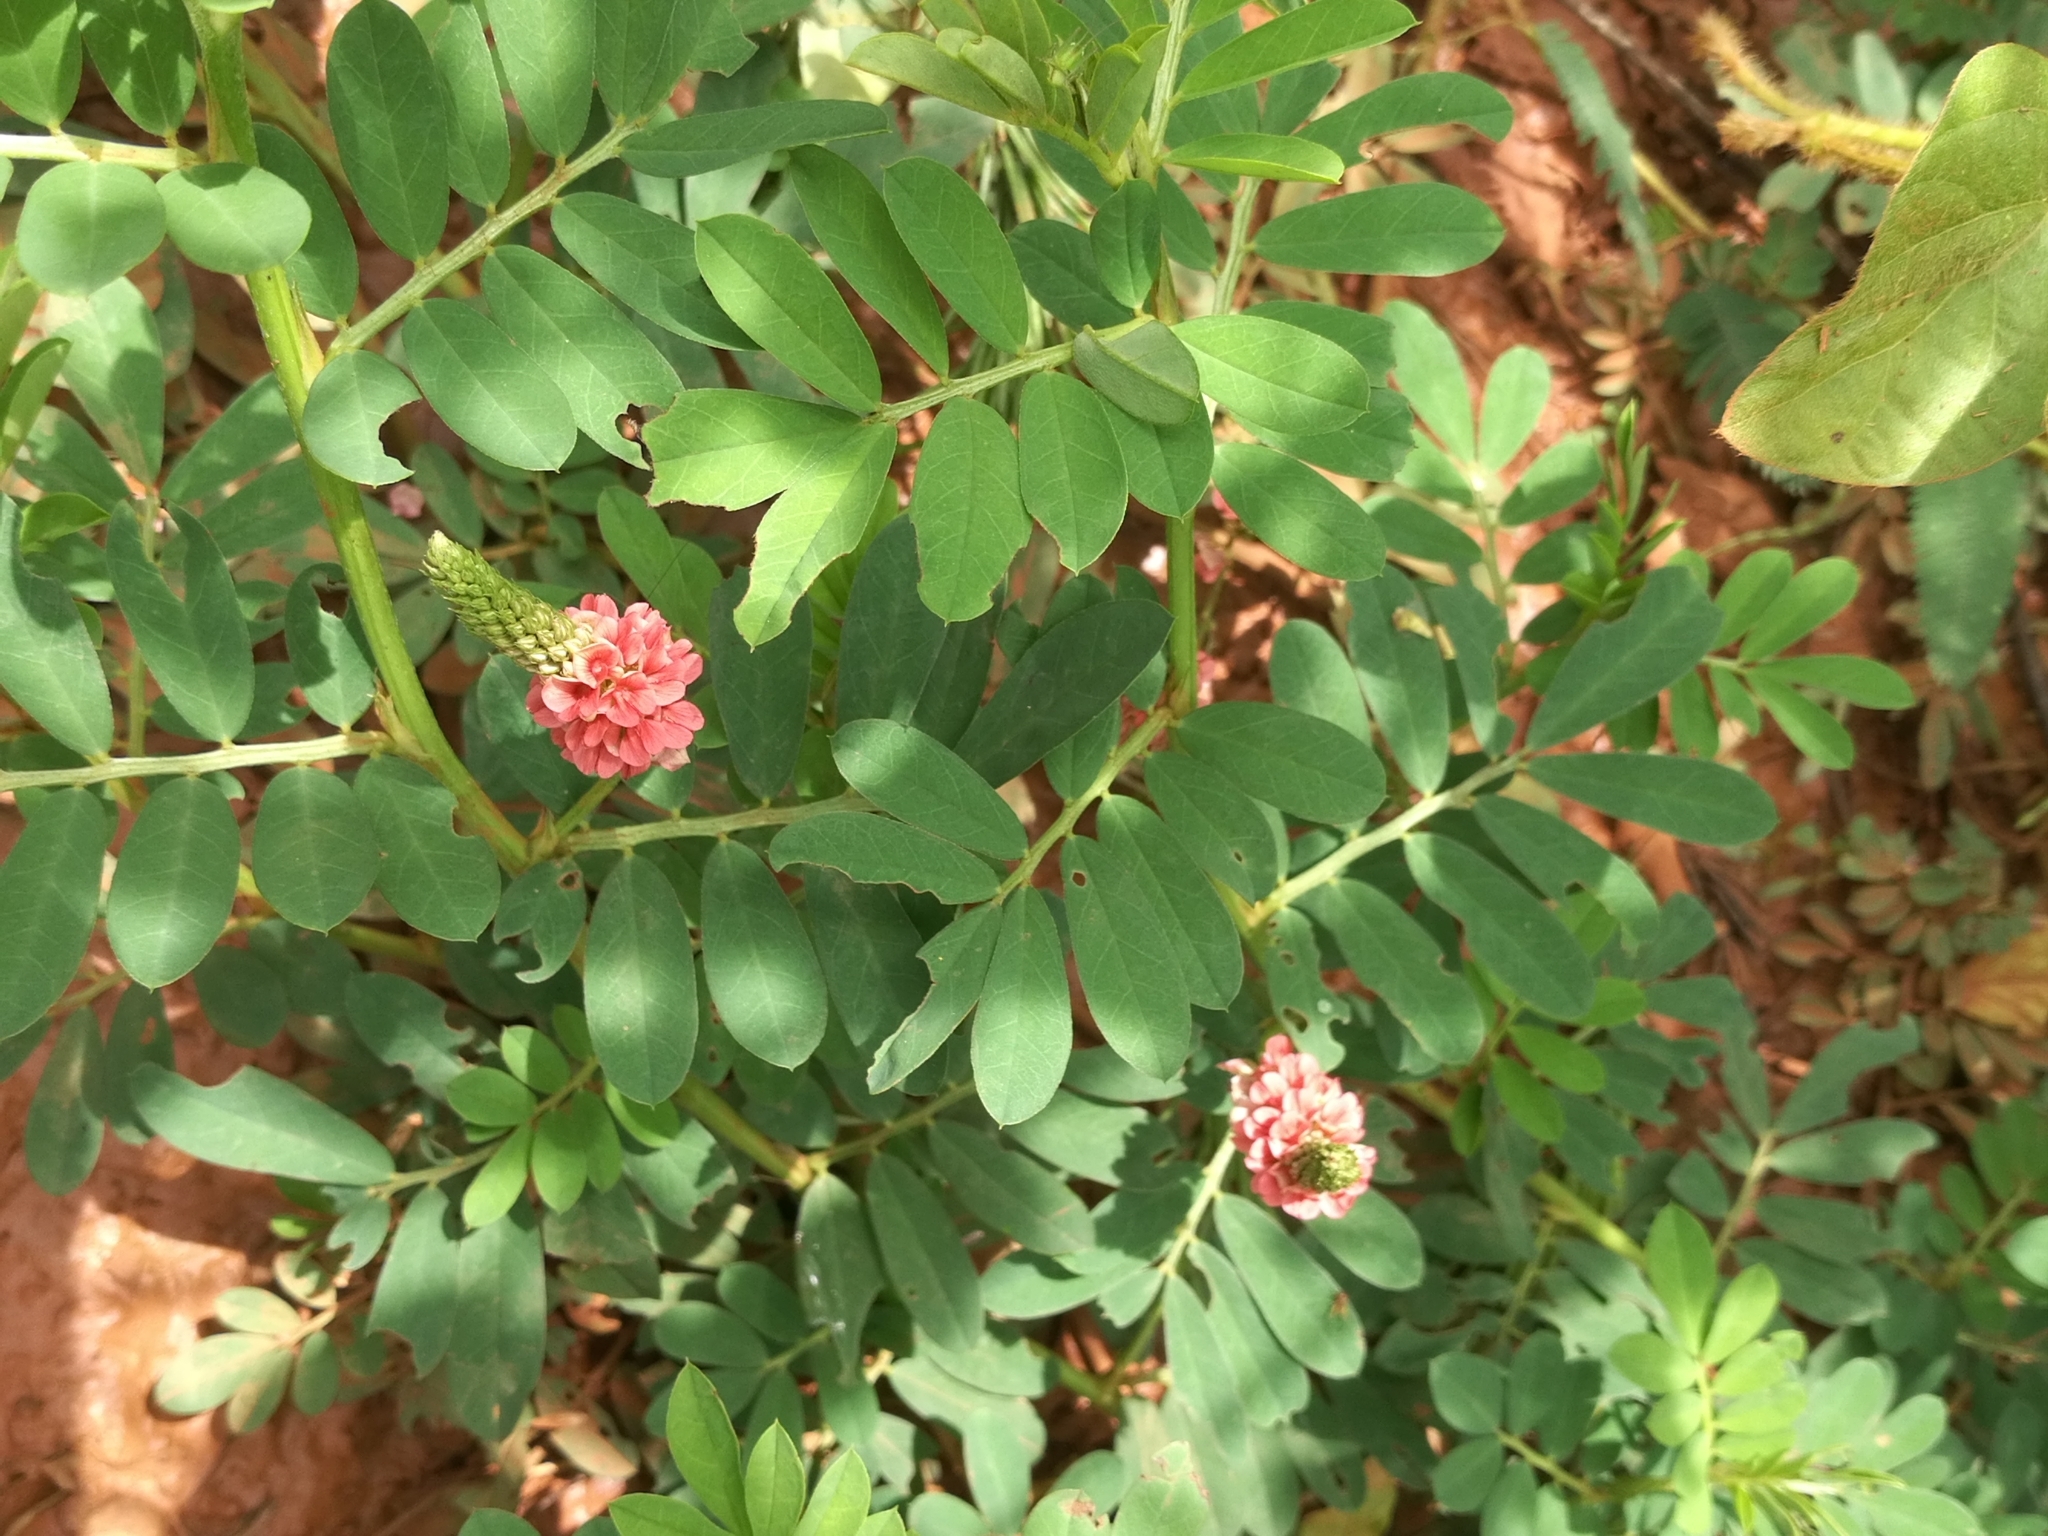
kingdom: Plantae
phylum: Tracheophyta
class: Magnoliopsida
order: Fabales
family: Fabaceae
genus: Indigofera
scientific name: Indigofera hendecaphylla
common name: Trailing indigo
